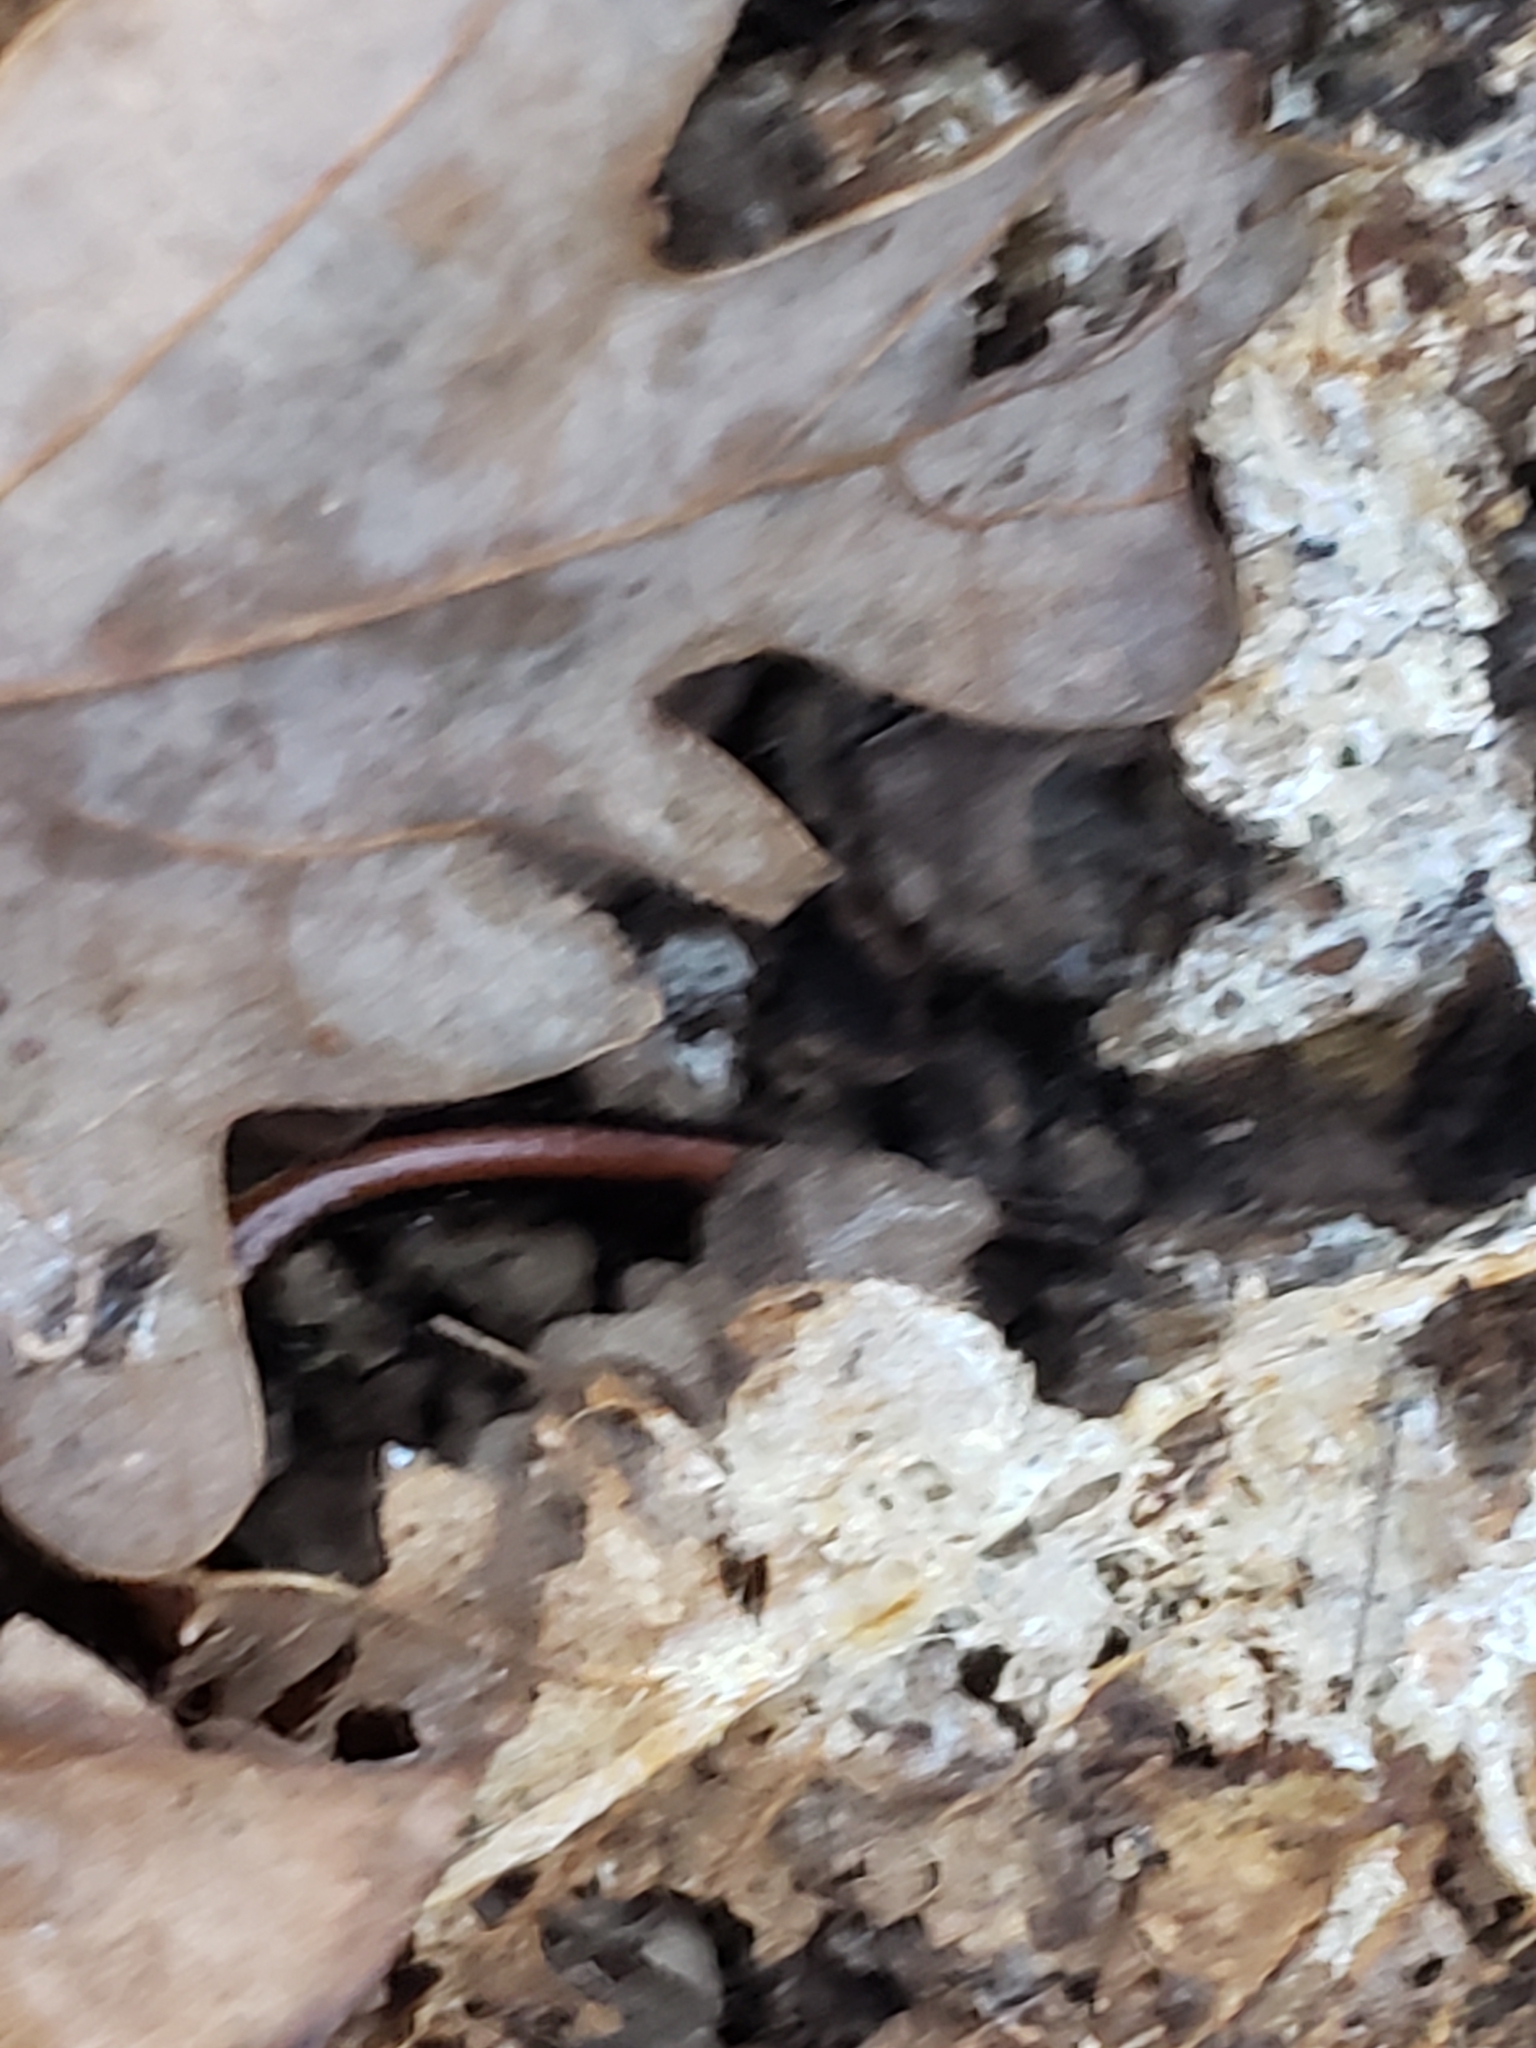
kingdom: Animalia
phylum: Chordata
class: Amphibia
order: Caudata
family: Plethodontidae
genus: Plethodon
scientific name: Plethodon cinereus
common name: Redback salamander
